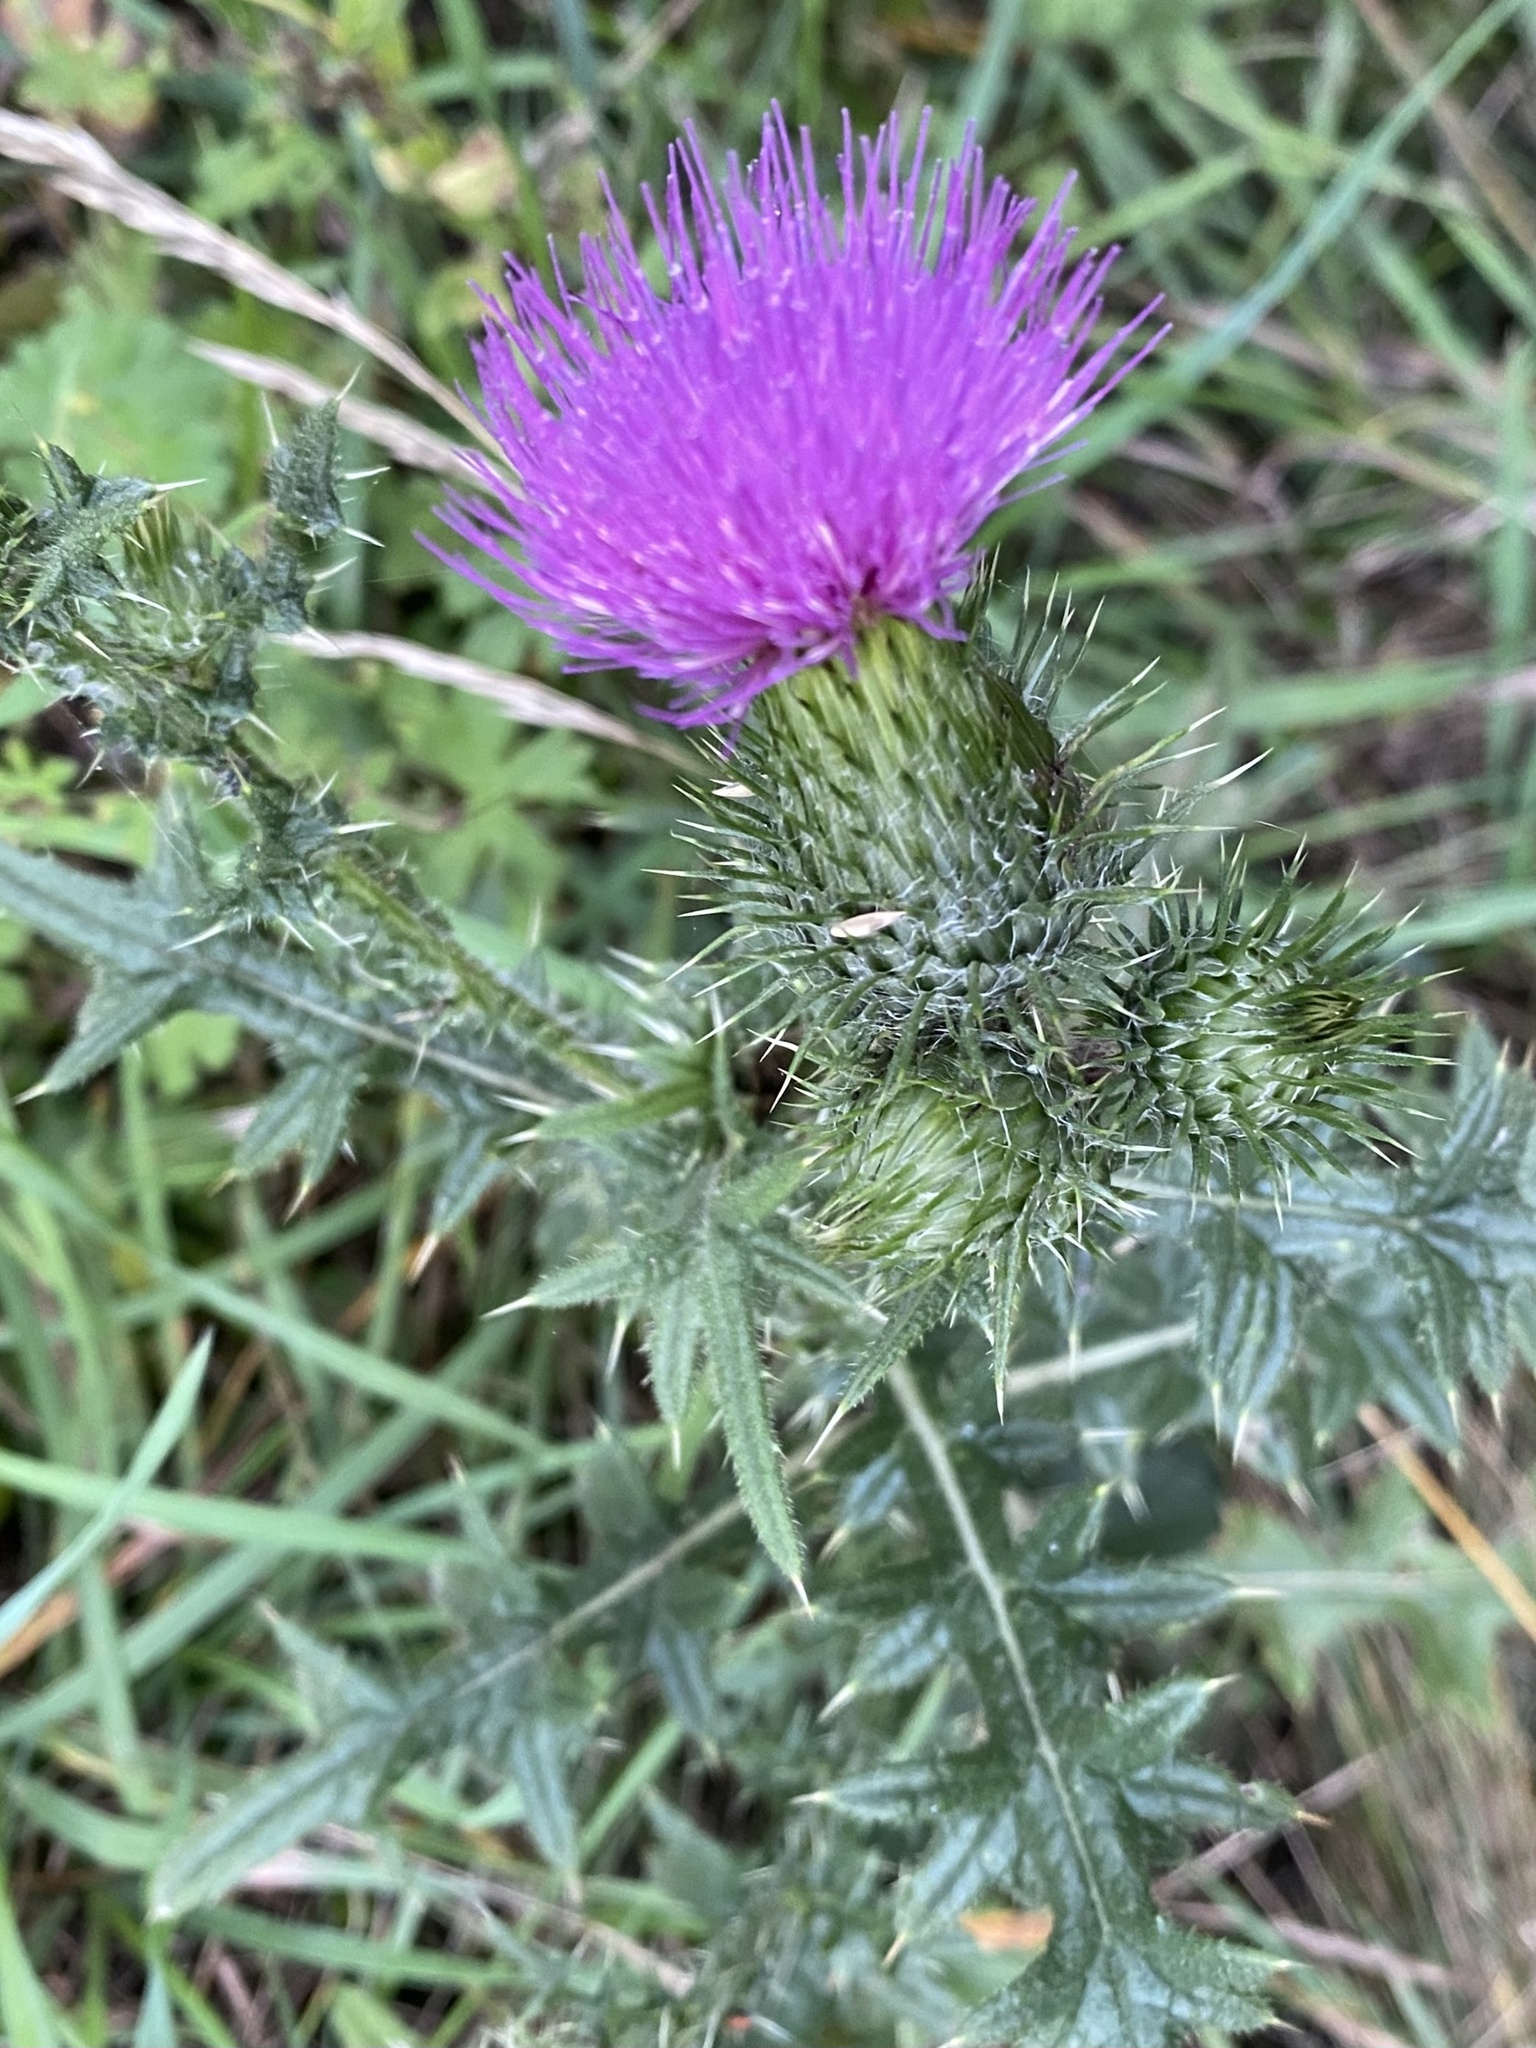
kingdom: Plantae
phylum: Tracheophyta
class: Magnoliopsida
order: Asterales
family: Asteraceae
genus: Cirsium
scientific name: Cirsium vulgare
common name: Bull thistle
